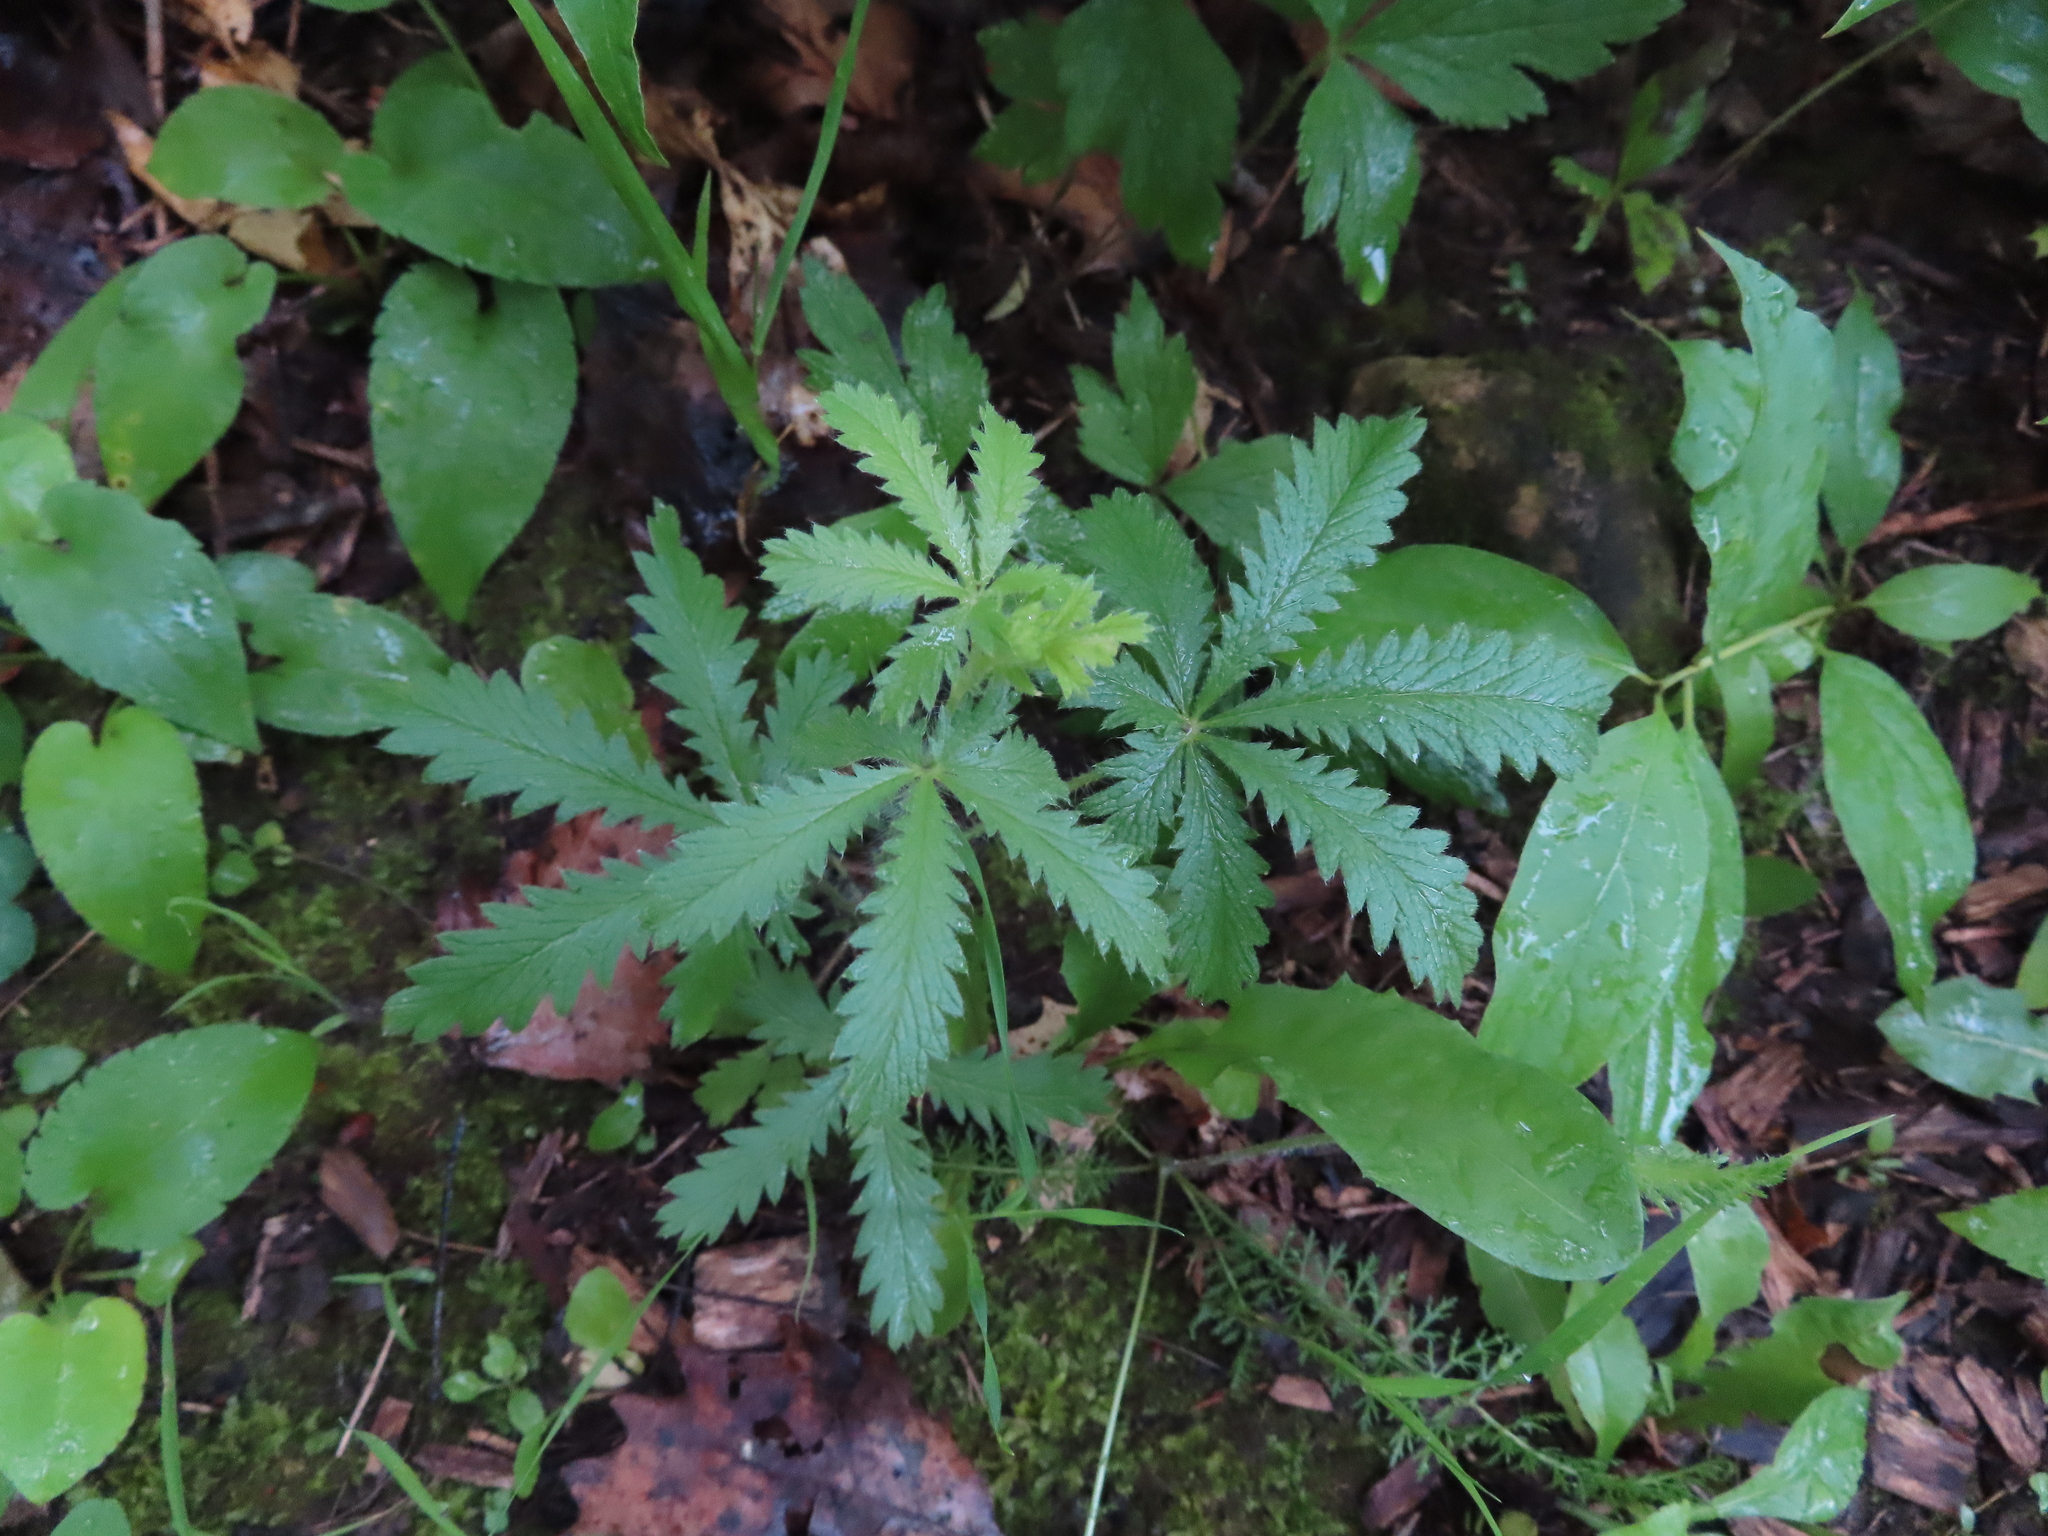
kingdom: Plantae
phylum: Tracheophyta
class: Magnoliopsida
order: Rosales
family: Rosaceae
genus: Potentilla
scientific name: Potentilla recta
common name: Sulphur cinquefoil
